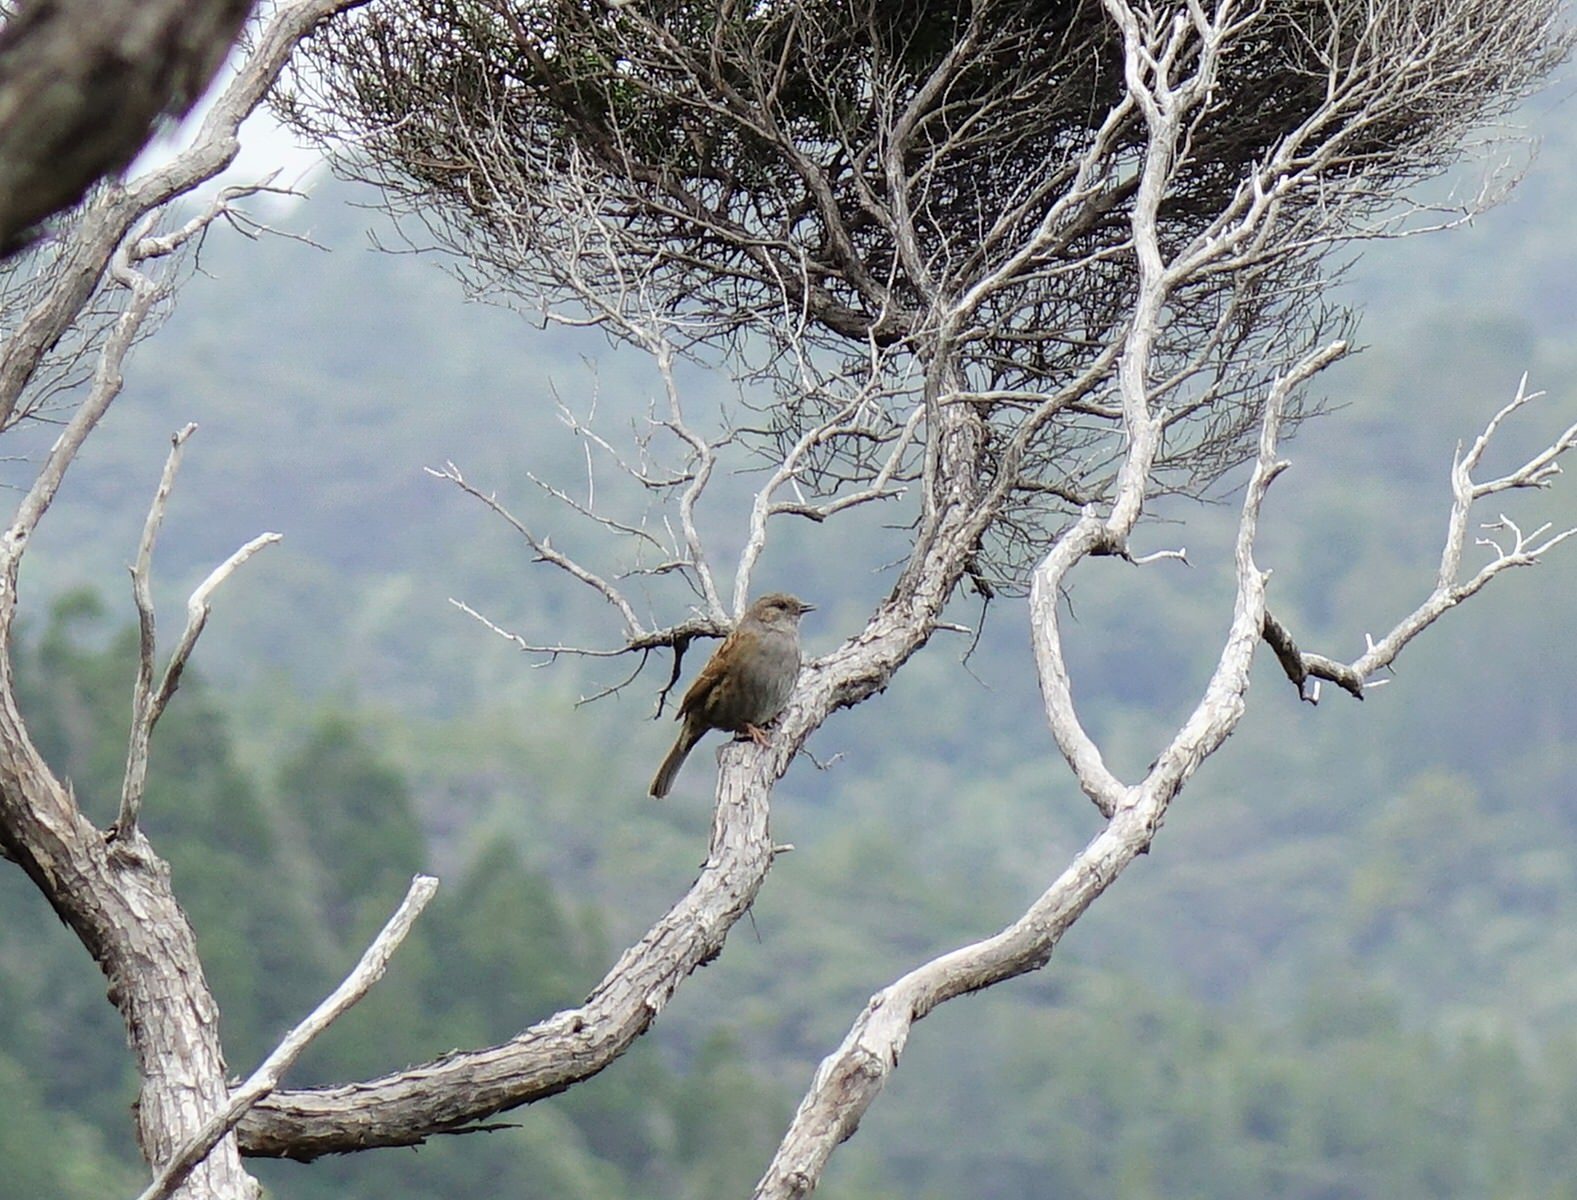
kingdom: Animalia
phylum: Chordata
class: Aves
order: Passeriformes
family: Prunellidae
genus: Prunella
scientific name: Prunella modularis
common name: Dunnock
